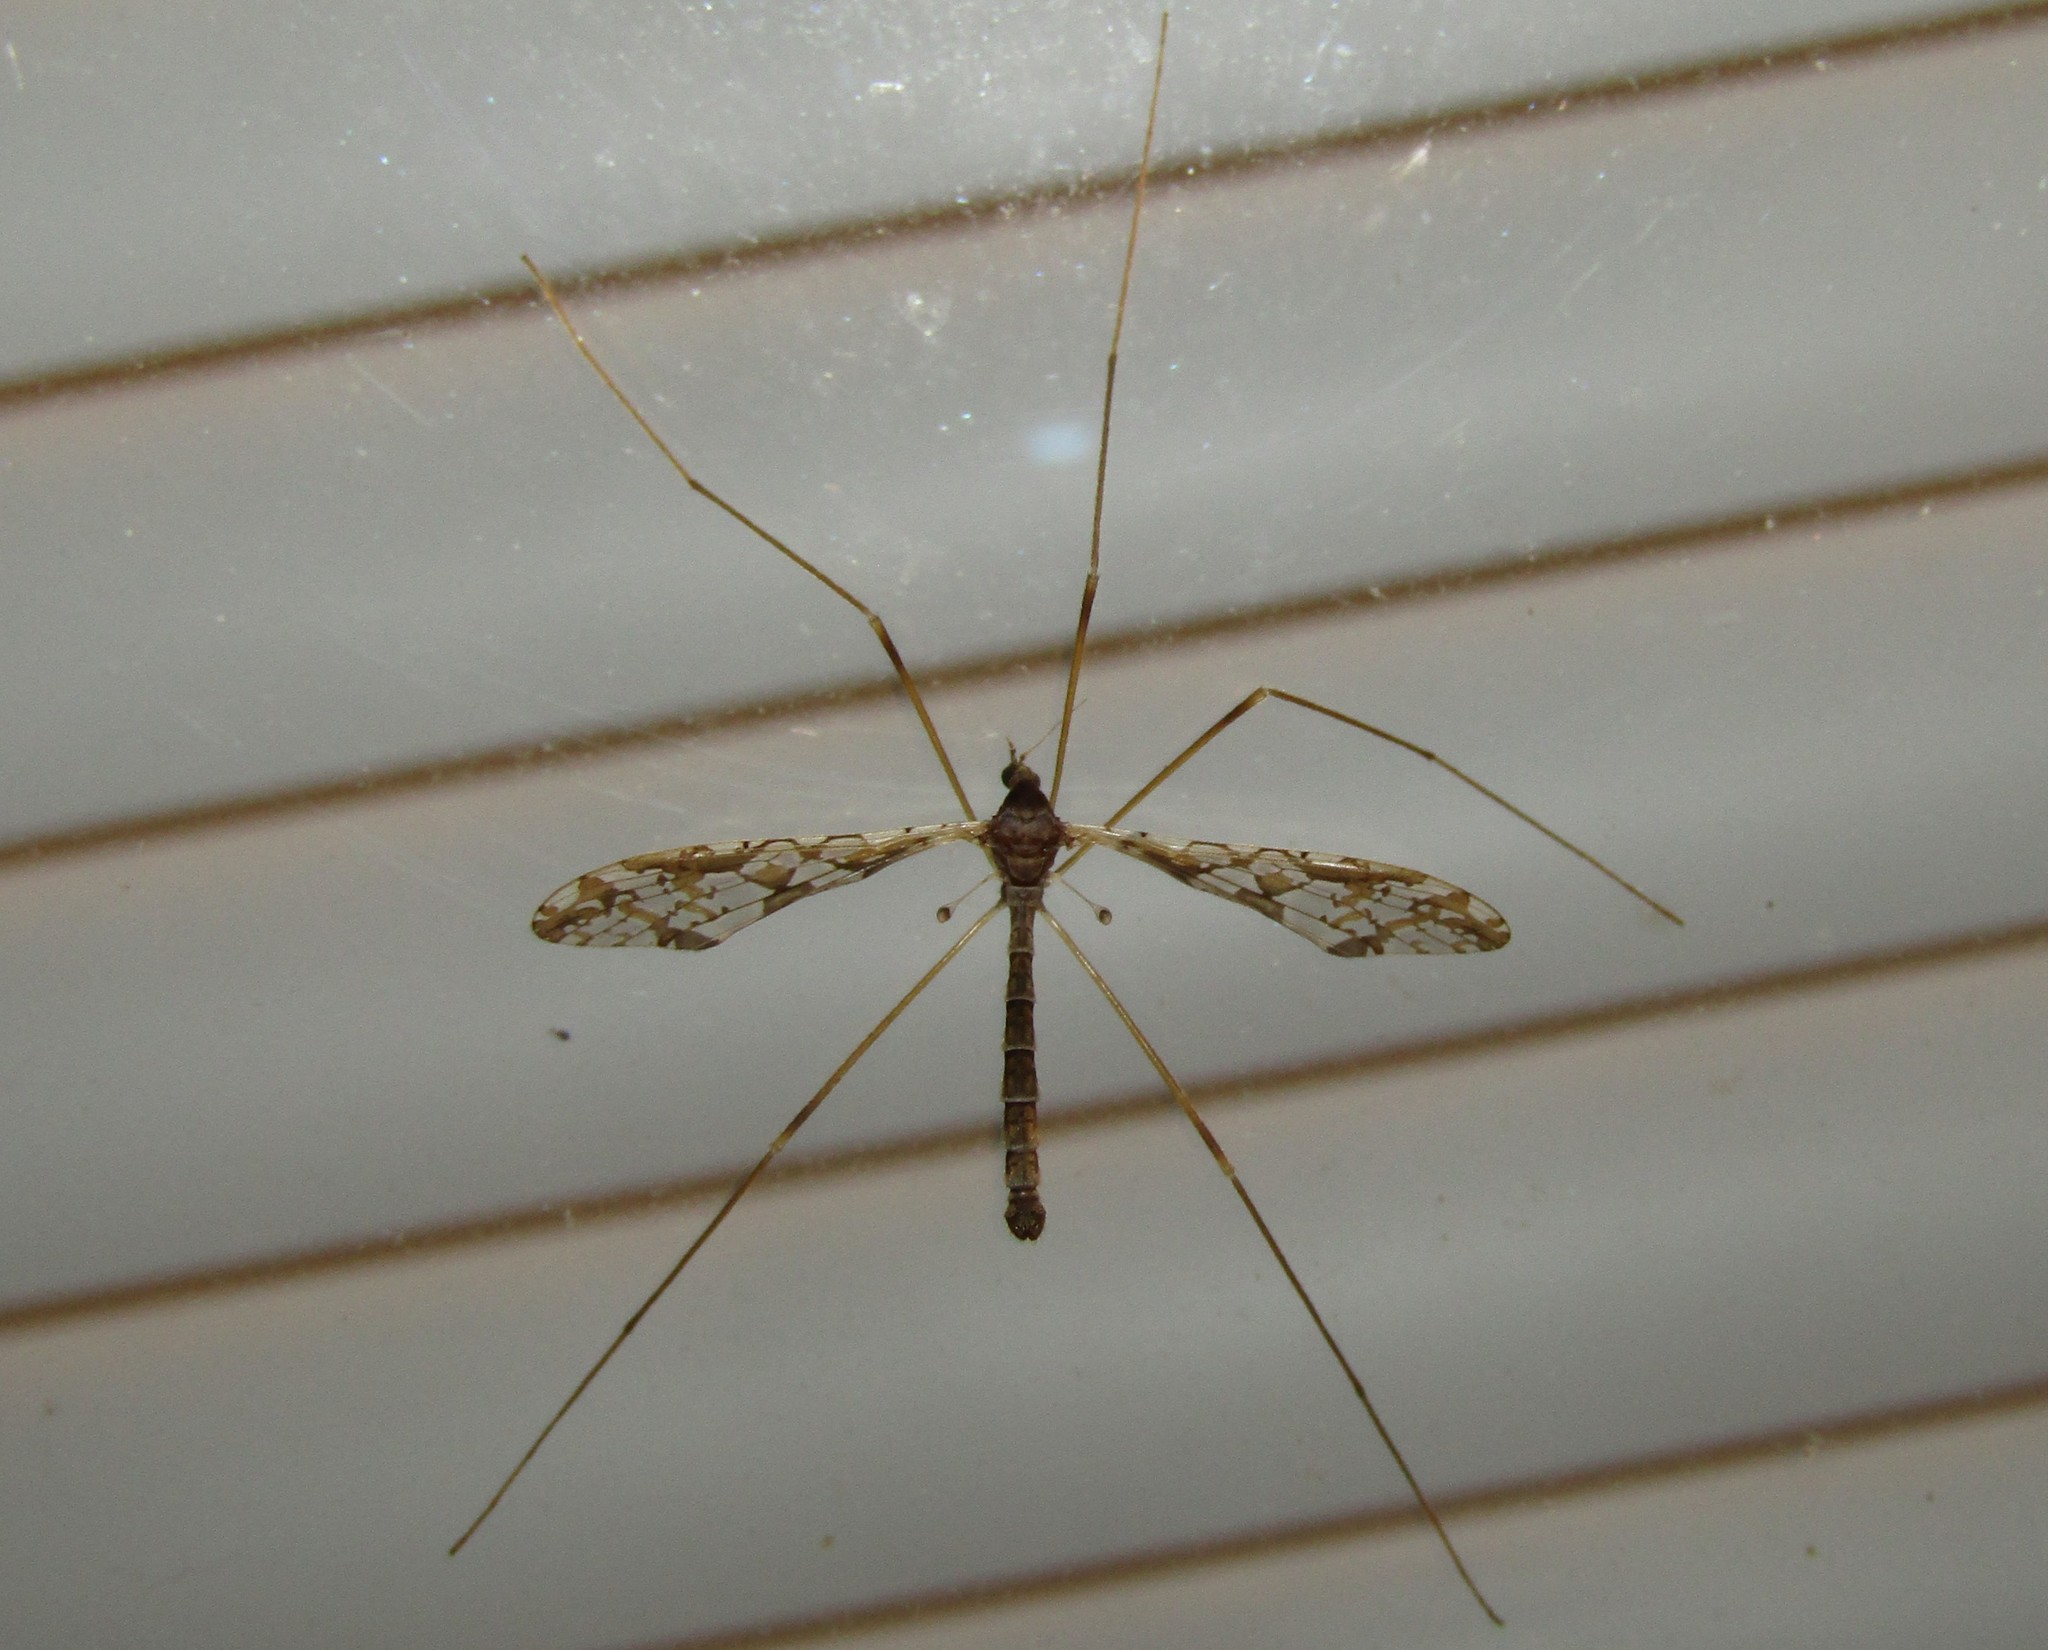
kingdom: Animalia
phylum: Arthropoda
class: Insecta
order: Diptera
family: Limoniidae
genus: Epiphragma
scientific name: Epiphragma solatrix
